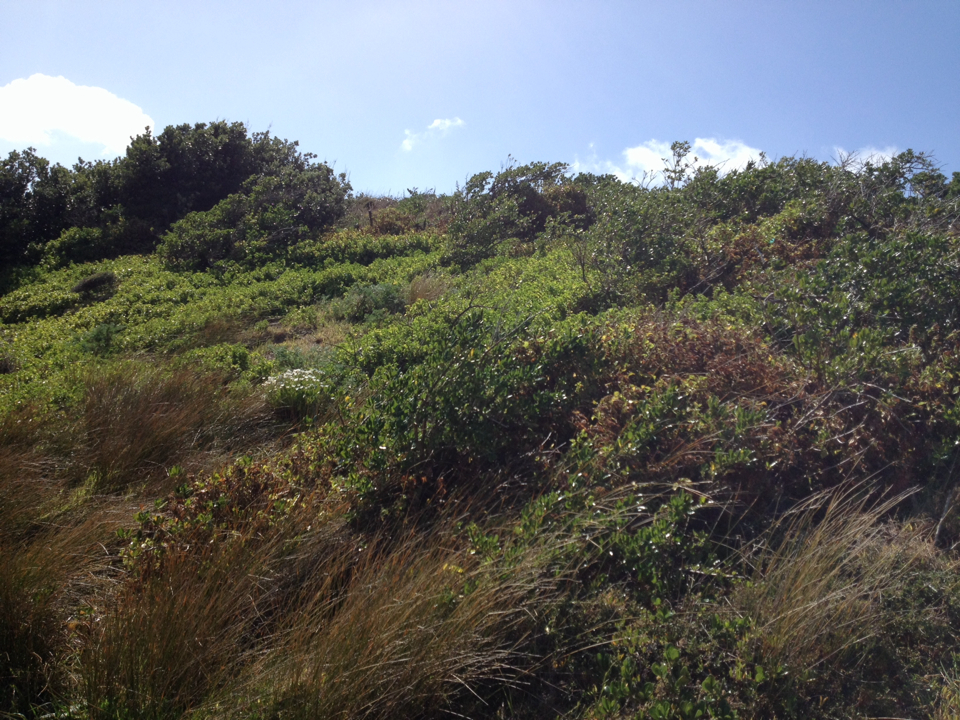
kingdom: Plantae
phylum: Tracheophyta
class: Magnoliopsida
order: Asterales
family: Asteraceae
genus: Delairea
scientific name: Delairea odorata
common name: Cape-ivy
